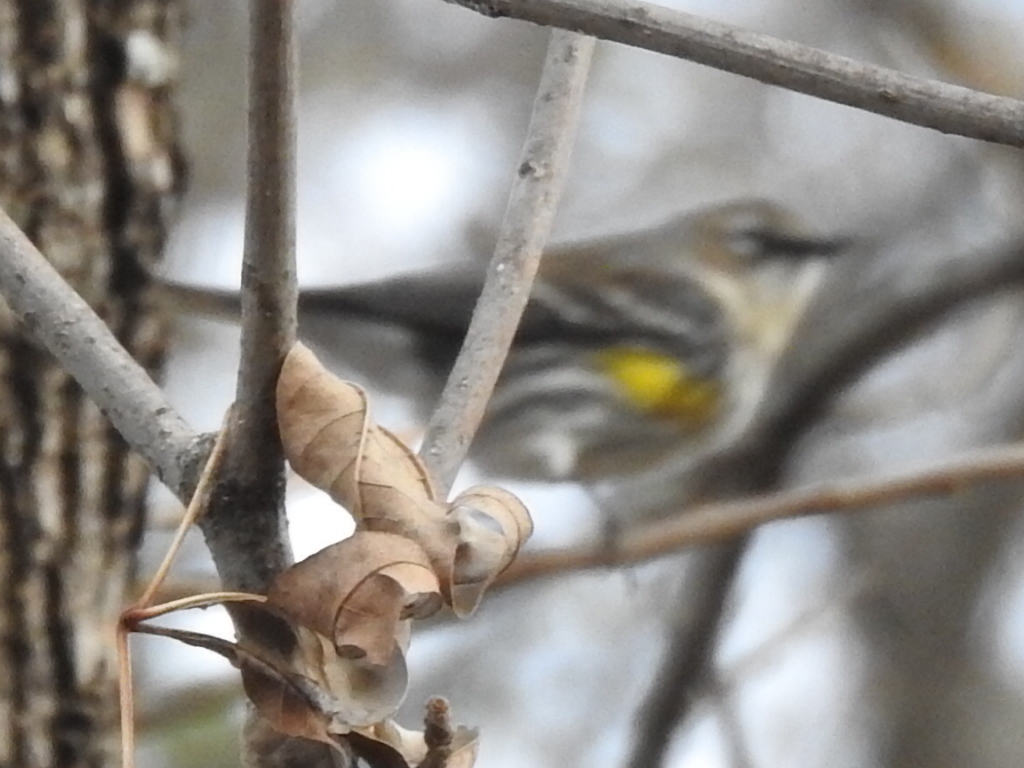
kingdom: Animalia
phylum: Chordata
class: Aves
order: Passeriformes
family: Parulidae
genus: Setophaga
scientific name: Setophaga coronata
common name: Myrtle warbler
